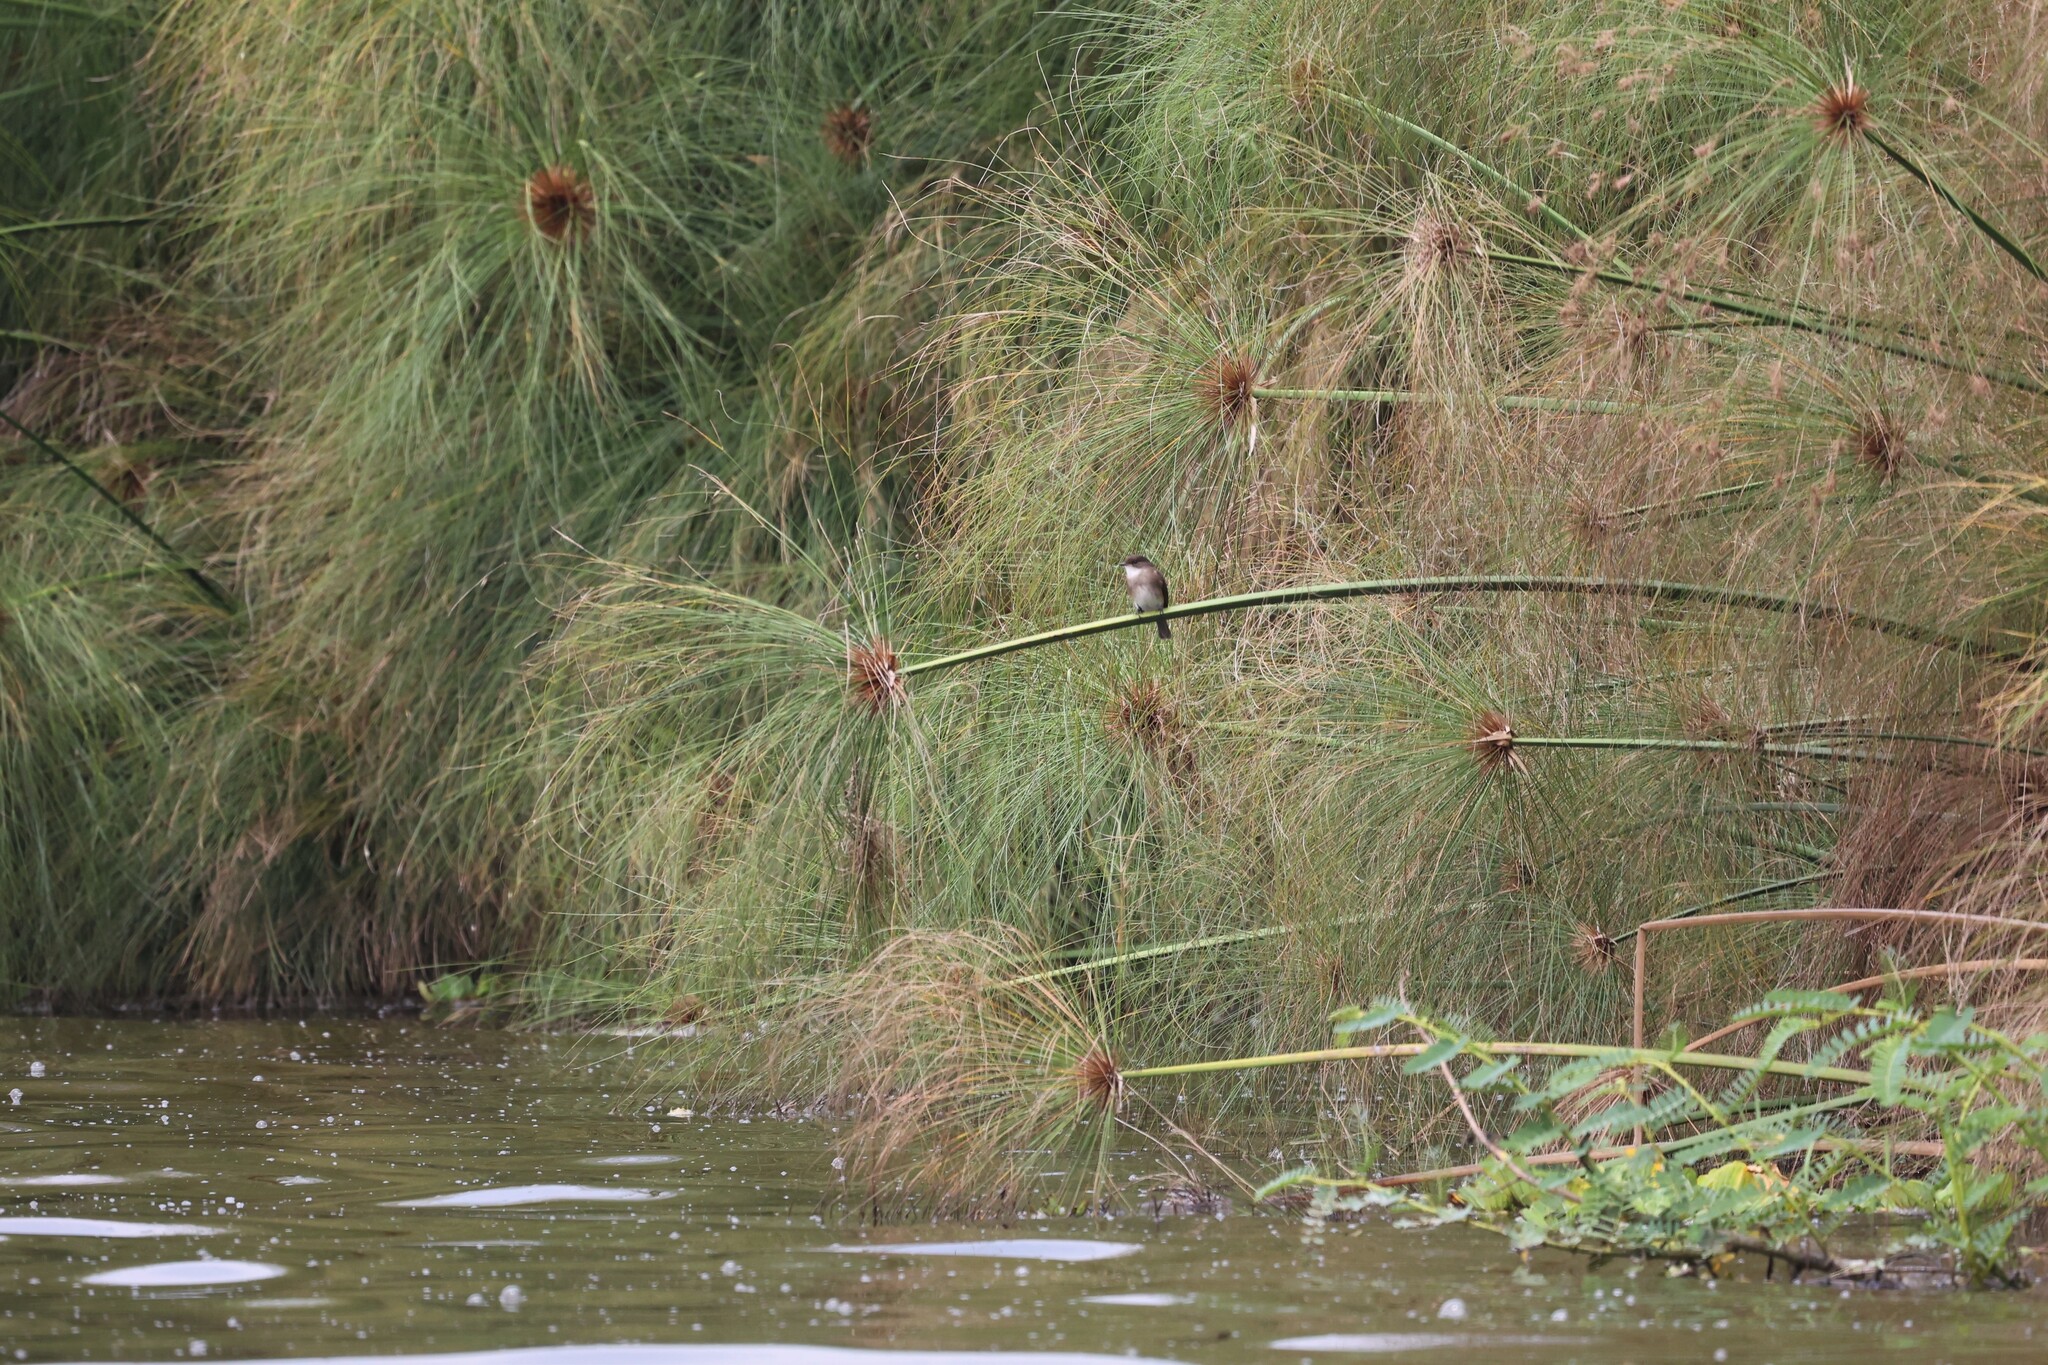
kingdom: Plantae
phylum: Tracheophyta
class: Liliopsida
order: Poales
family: Cyperaceae
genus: Cyperus
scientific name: Cyperus papyrus
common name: Papyrus
